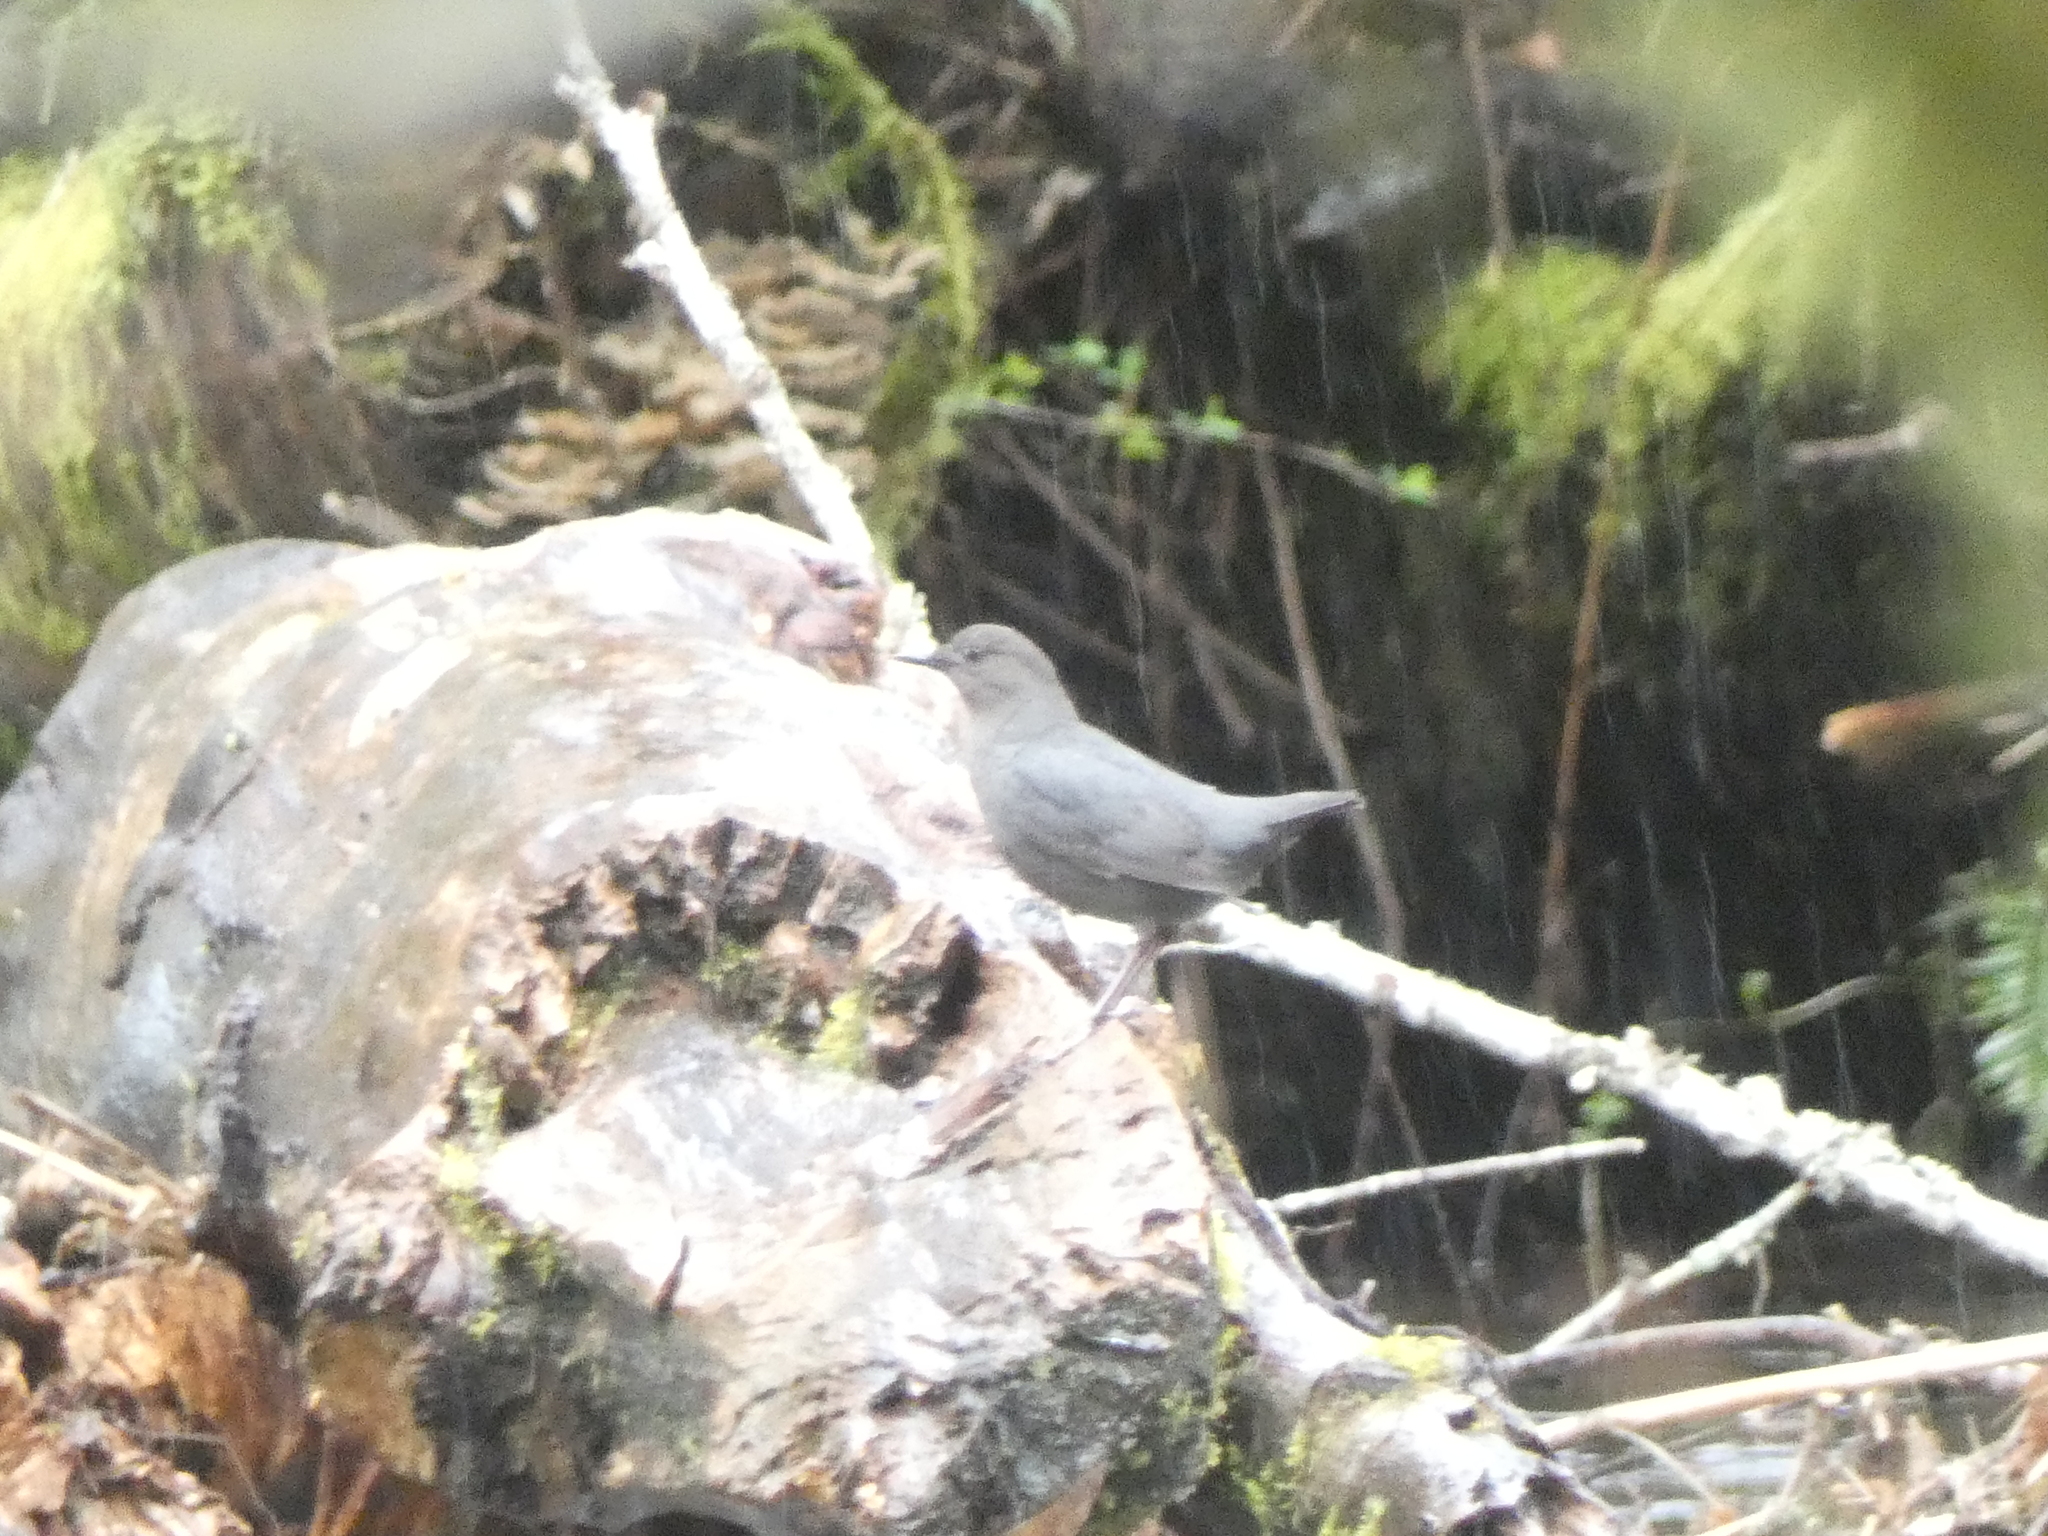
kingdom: Animalia
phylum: Chordata
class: Aves
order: Passeriformes
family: Cinclidae
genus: Cinclus
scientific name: Cinclus mexicanus
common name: American dipper
